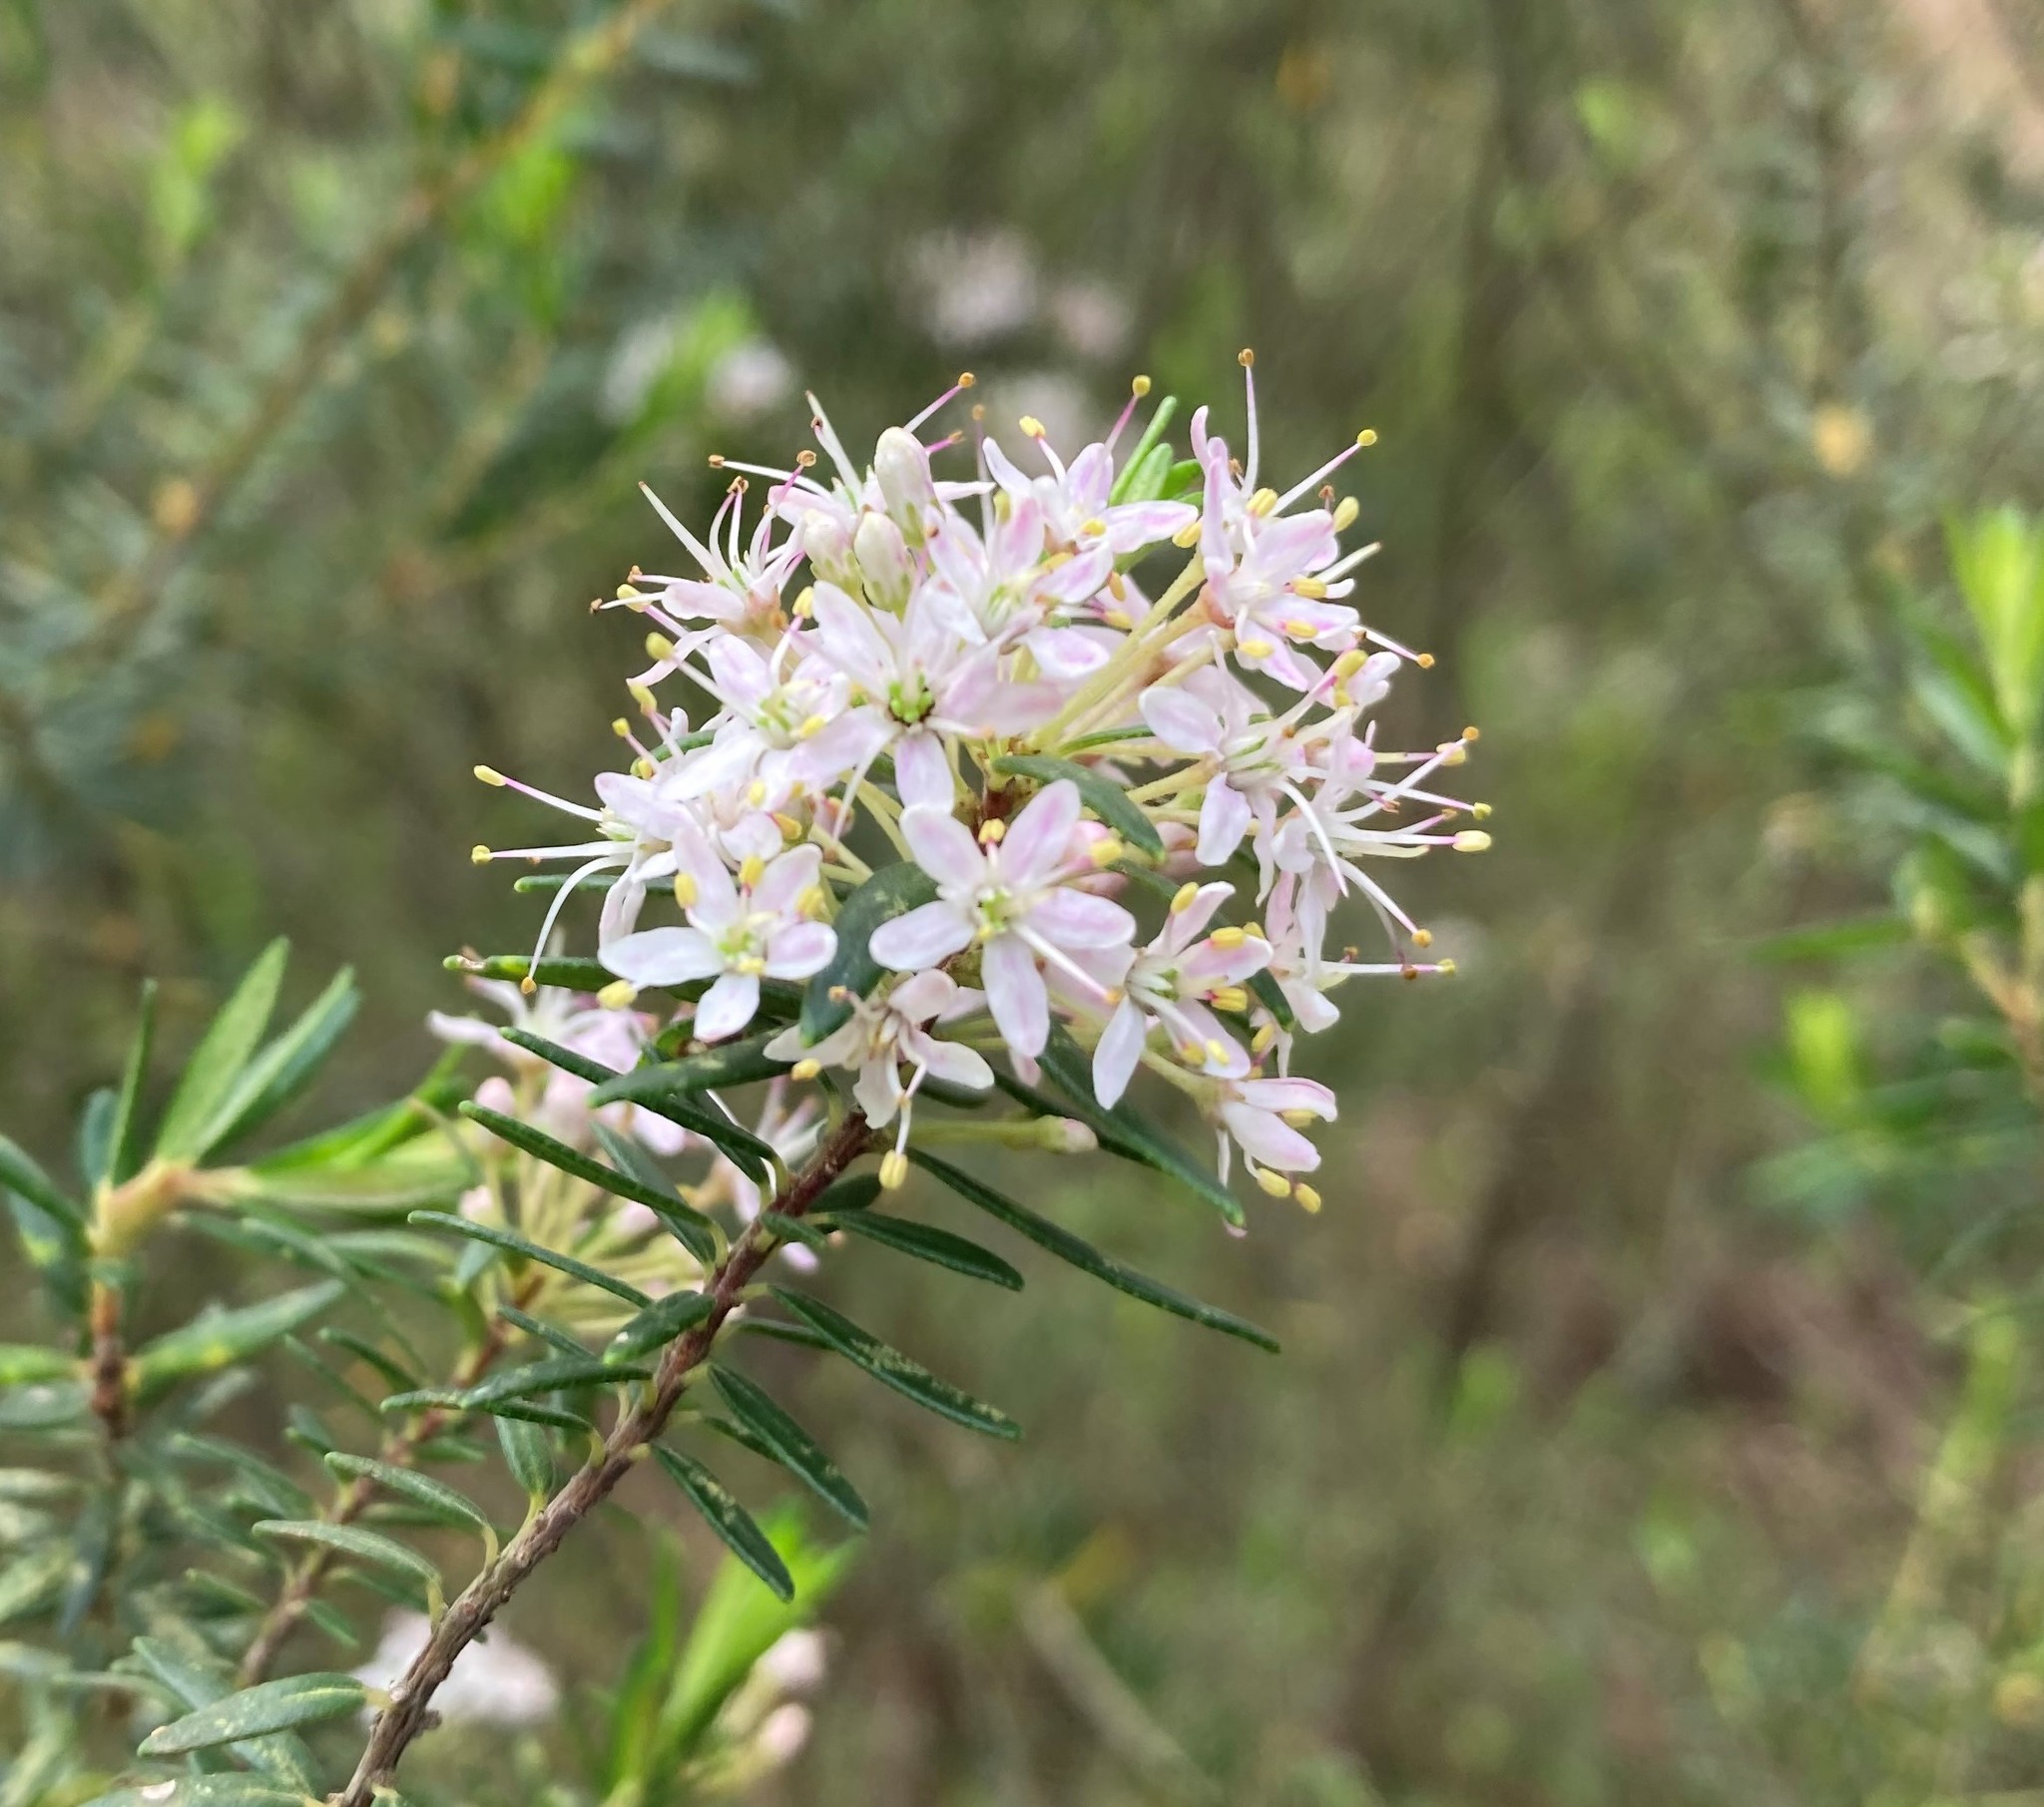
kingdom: Plantae
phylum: Tracheophyta
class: Magnoliopsida
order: Sapindales
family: Rutaceae
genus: Agathosma
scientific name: Agathosma ovata
